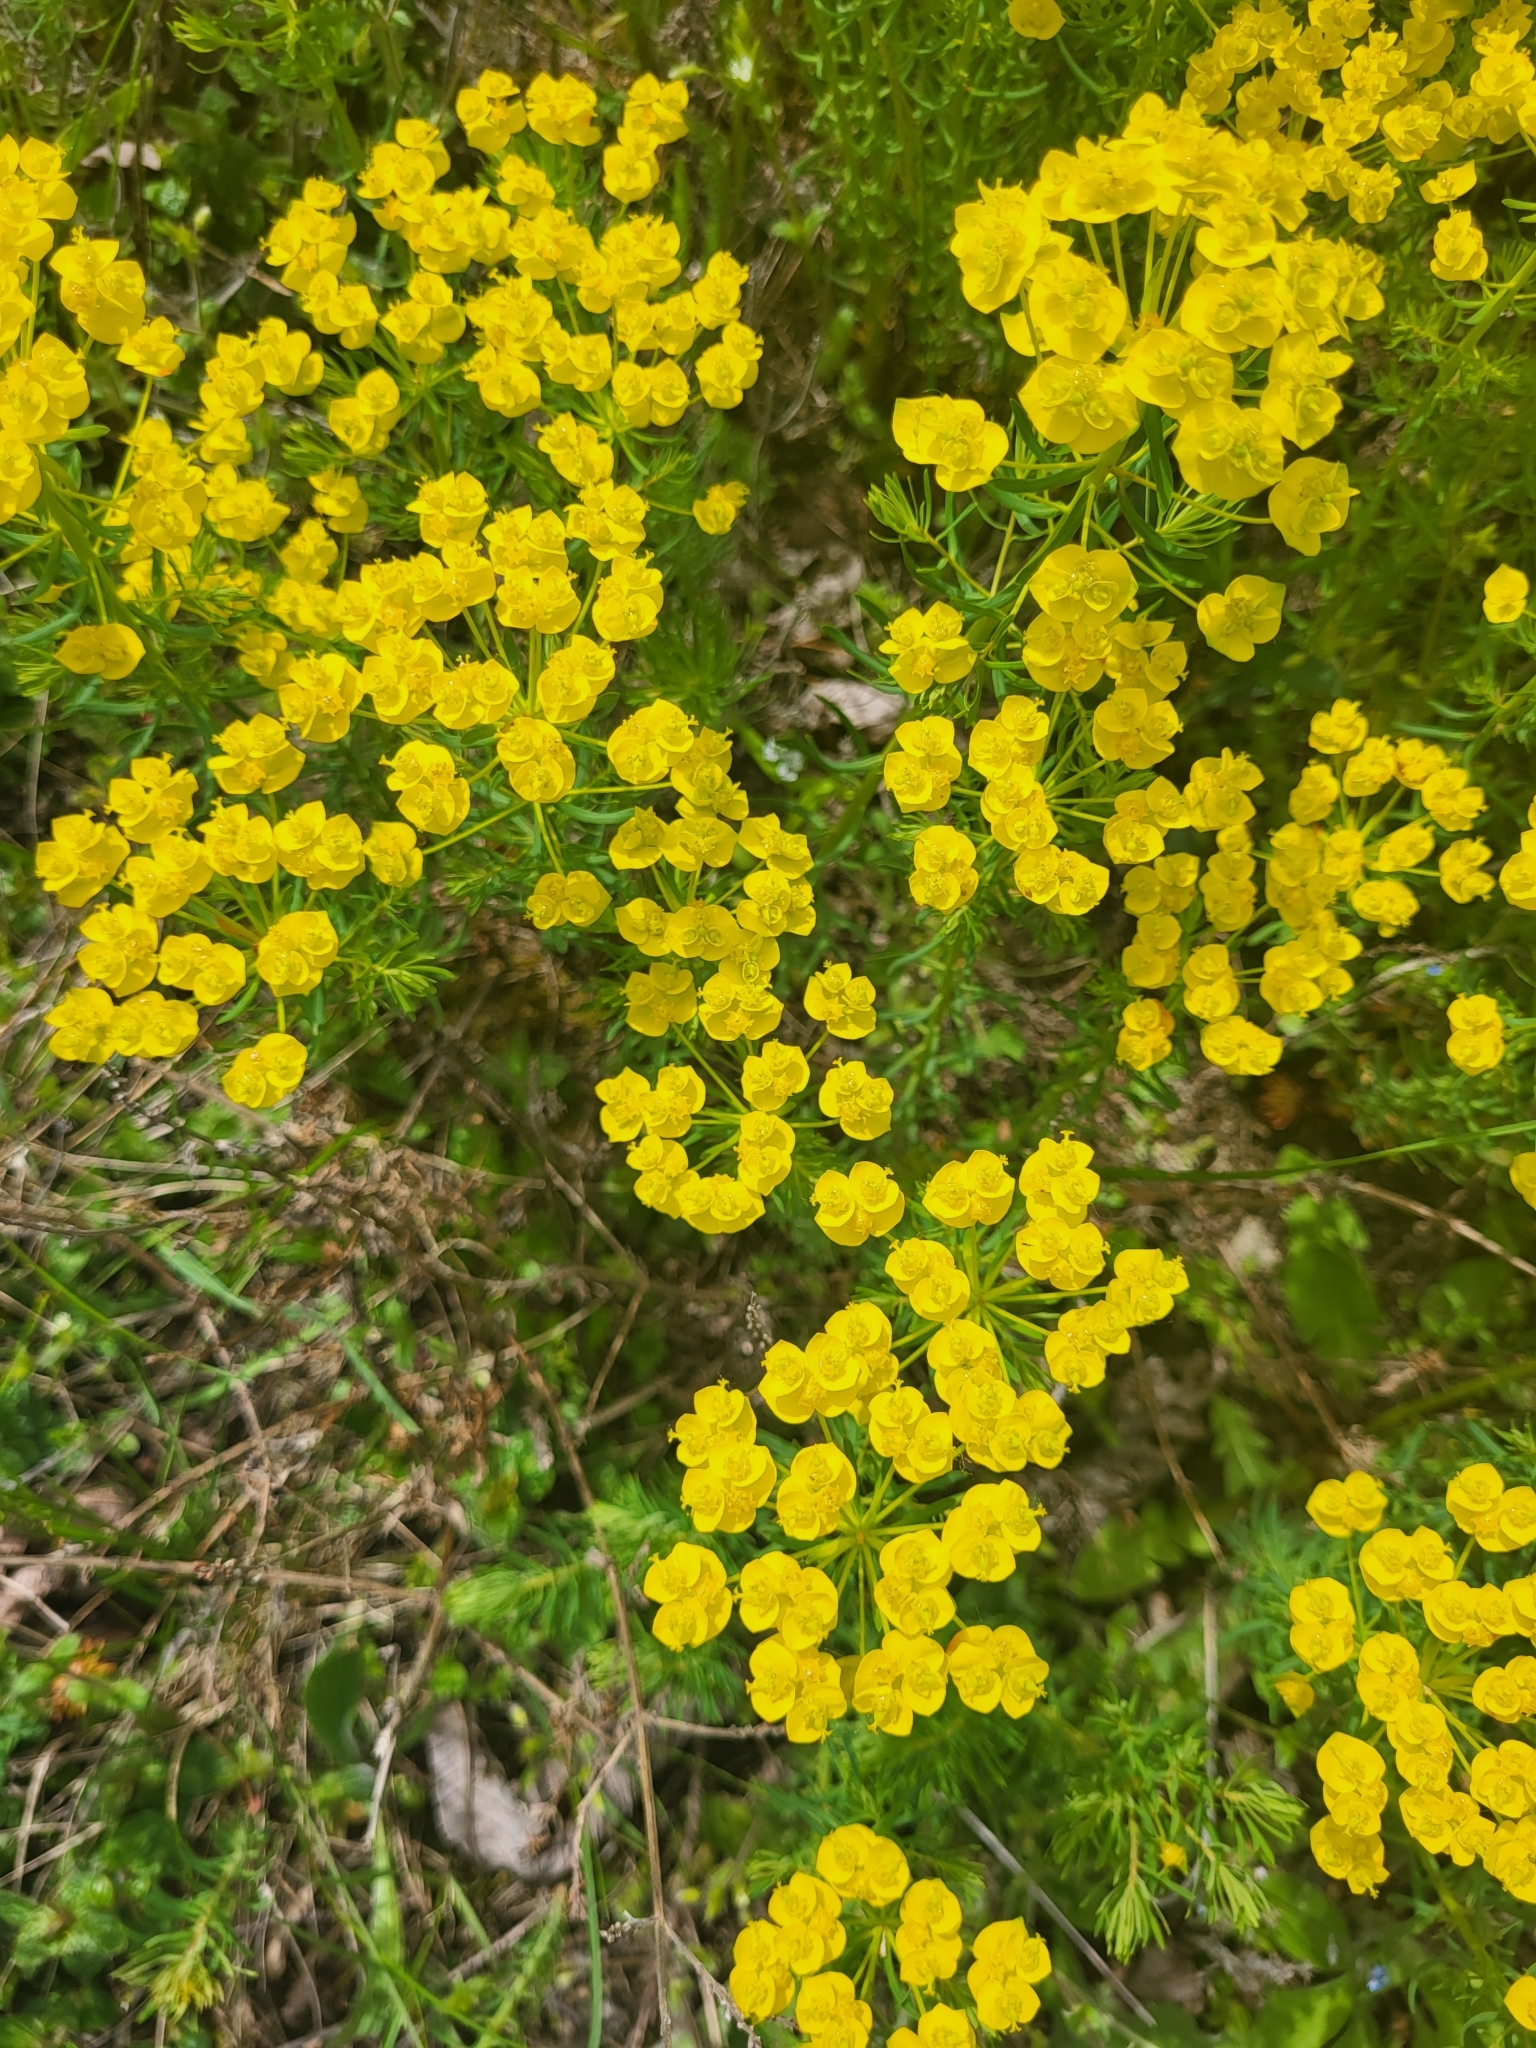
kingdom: Plantae
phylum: Tracheophyta
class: Magnoliopsida
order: Malpighiales
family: Euphorbiaceae
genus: Euphorbia
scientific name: Euphorbia cyparissias
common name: Cypress spurge
